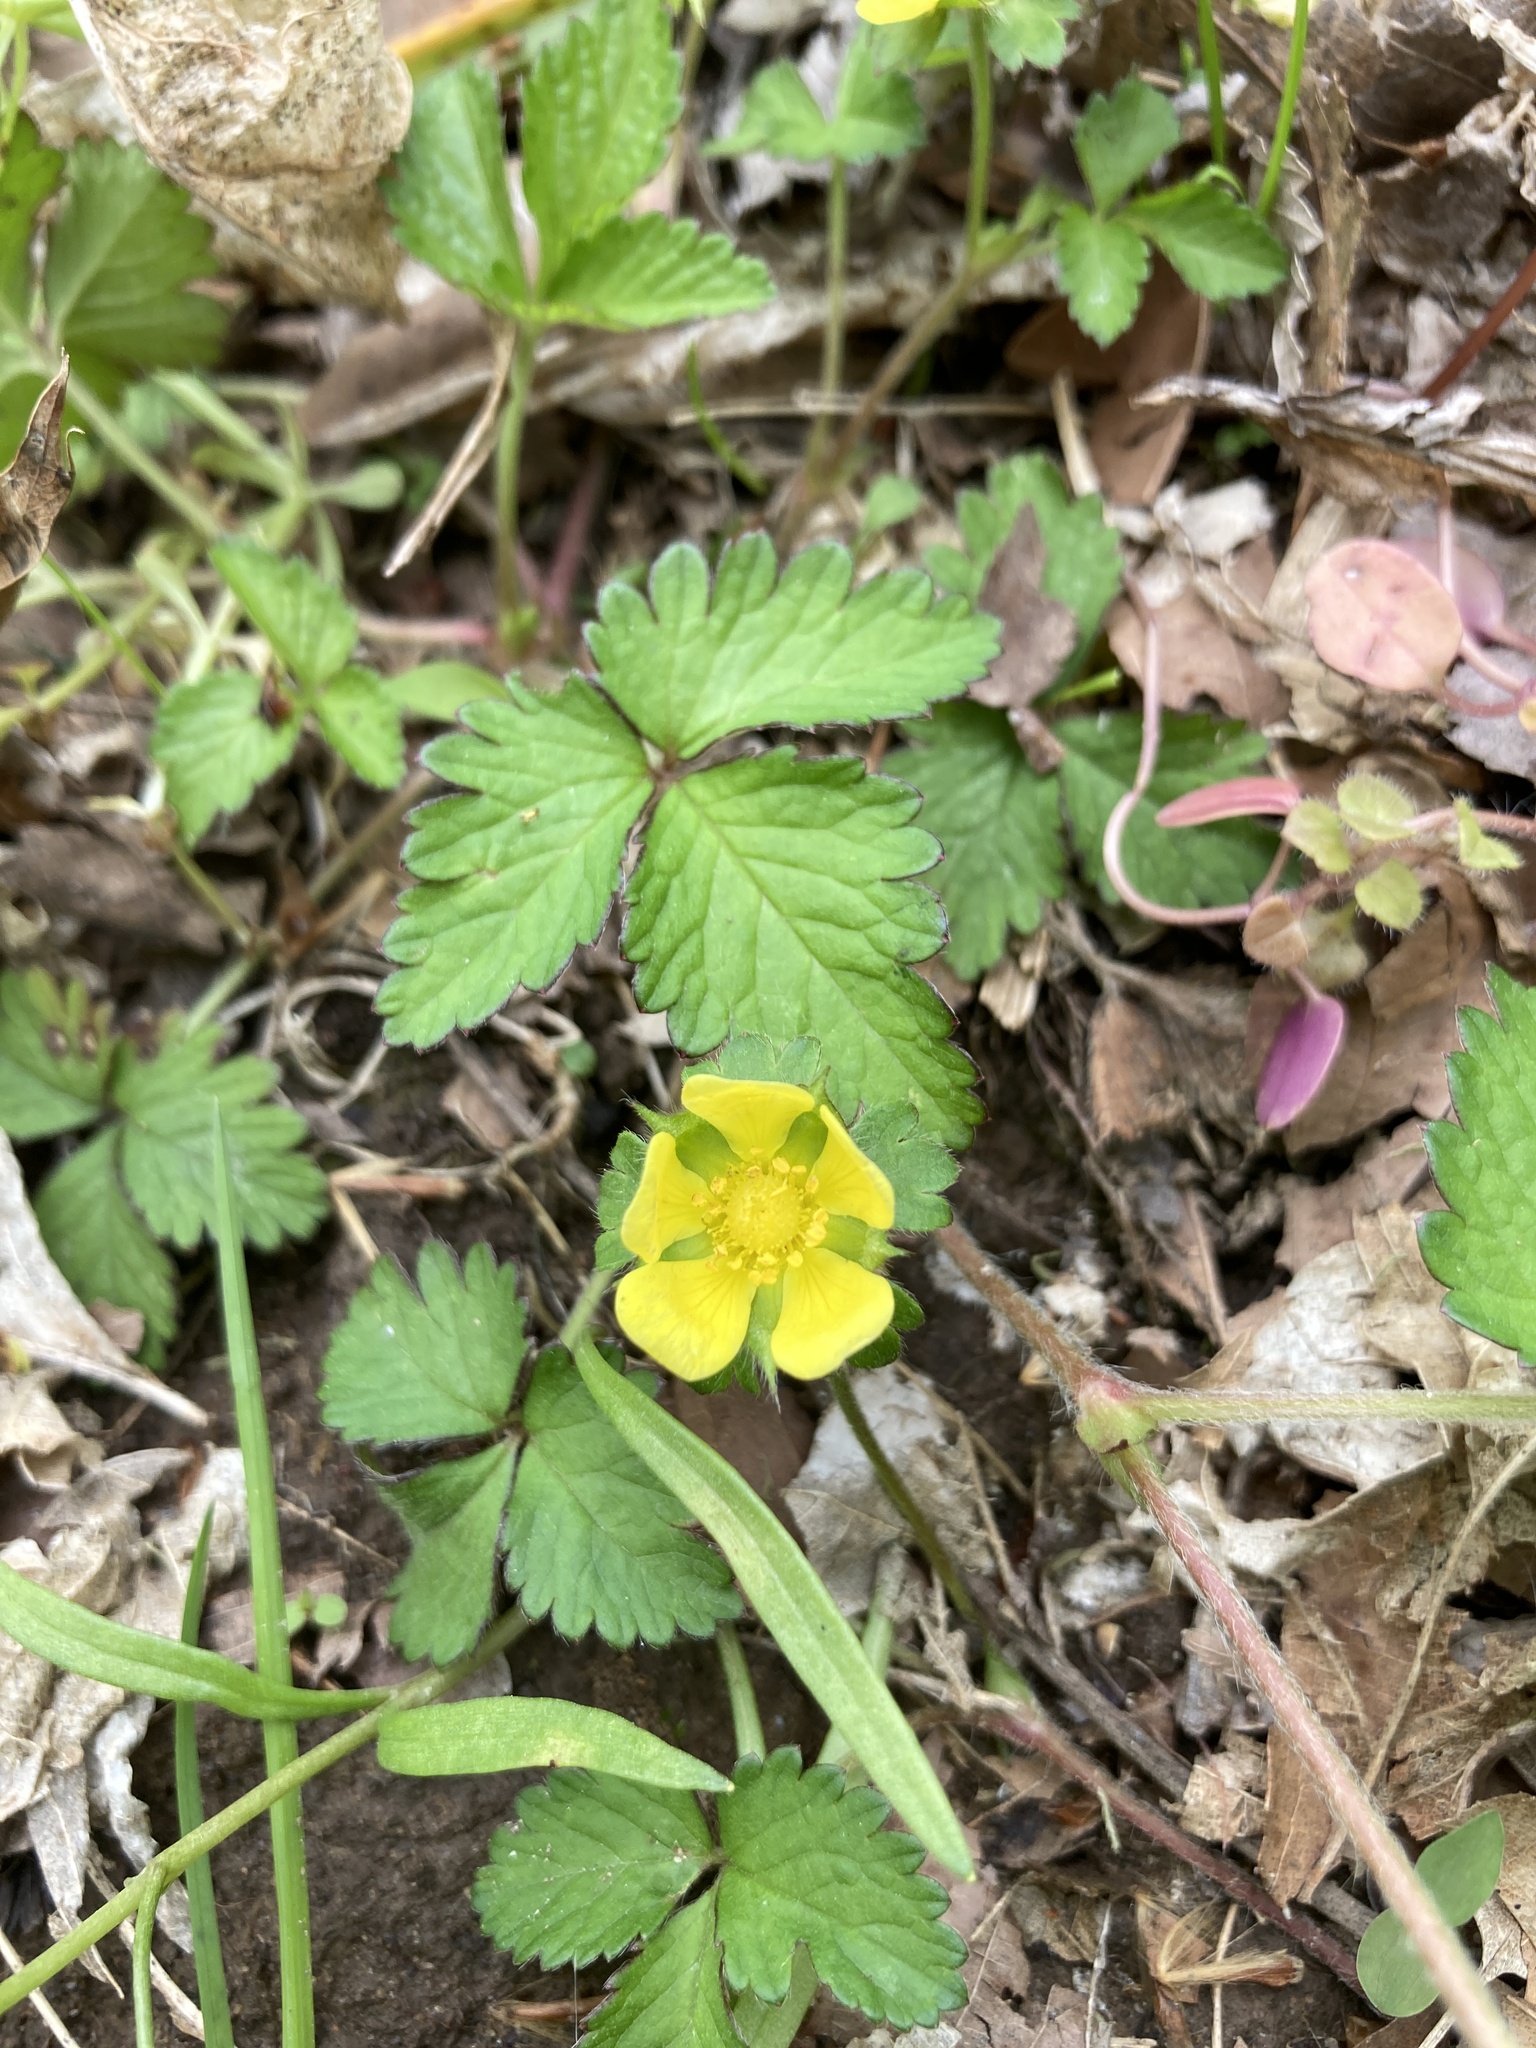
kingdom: Plantae
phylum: Tracheophyta
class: Magnoliopsida
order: Rosales
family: Rosaceae
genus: Potentilla
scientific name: Potentilla indica
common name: Yellow-flowered strawberry
